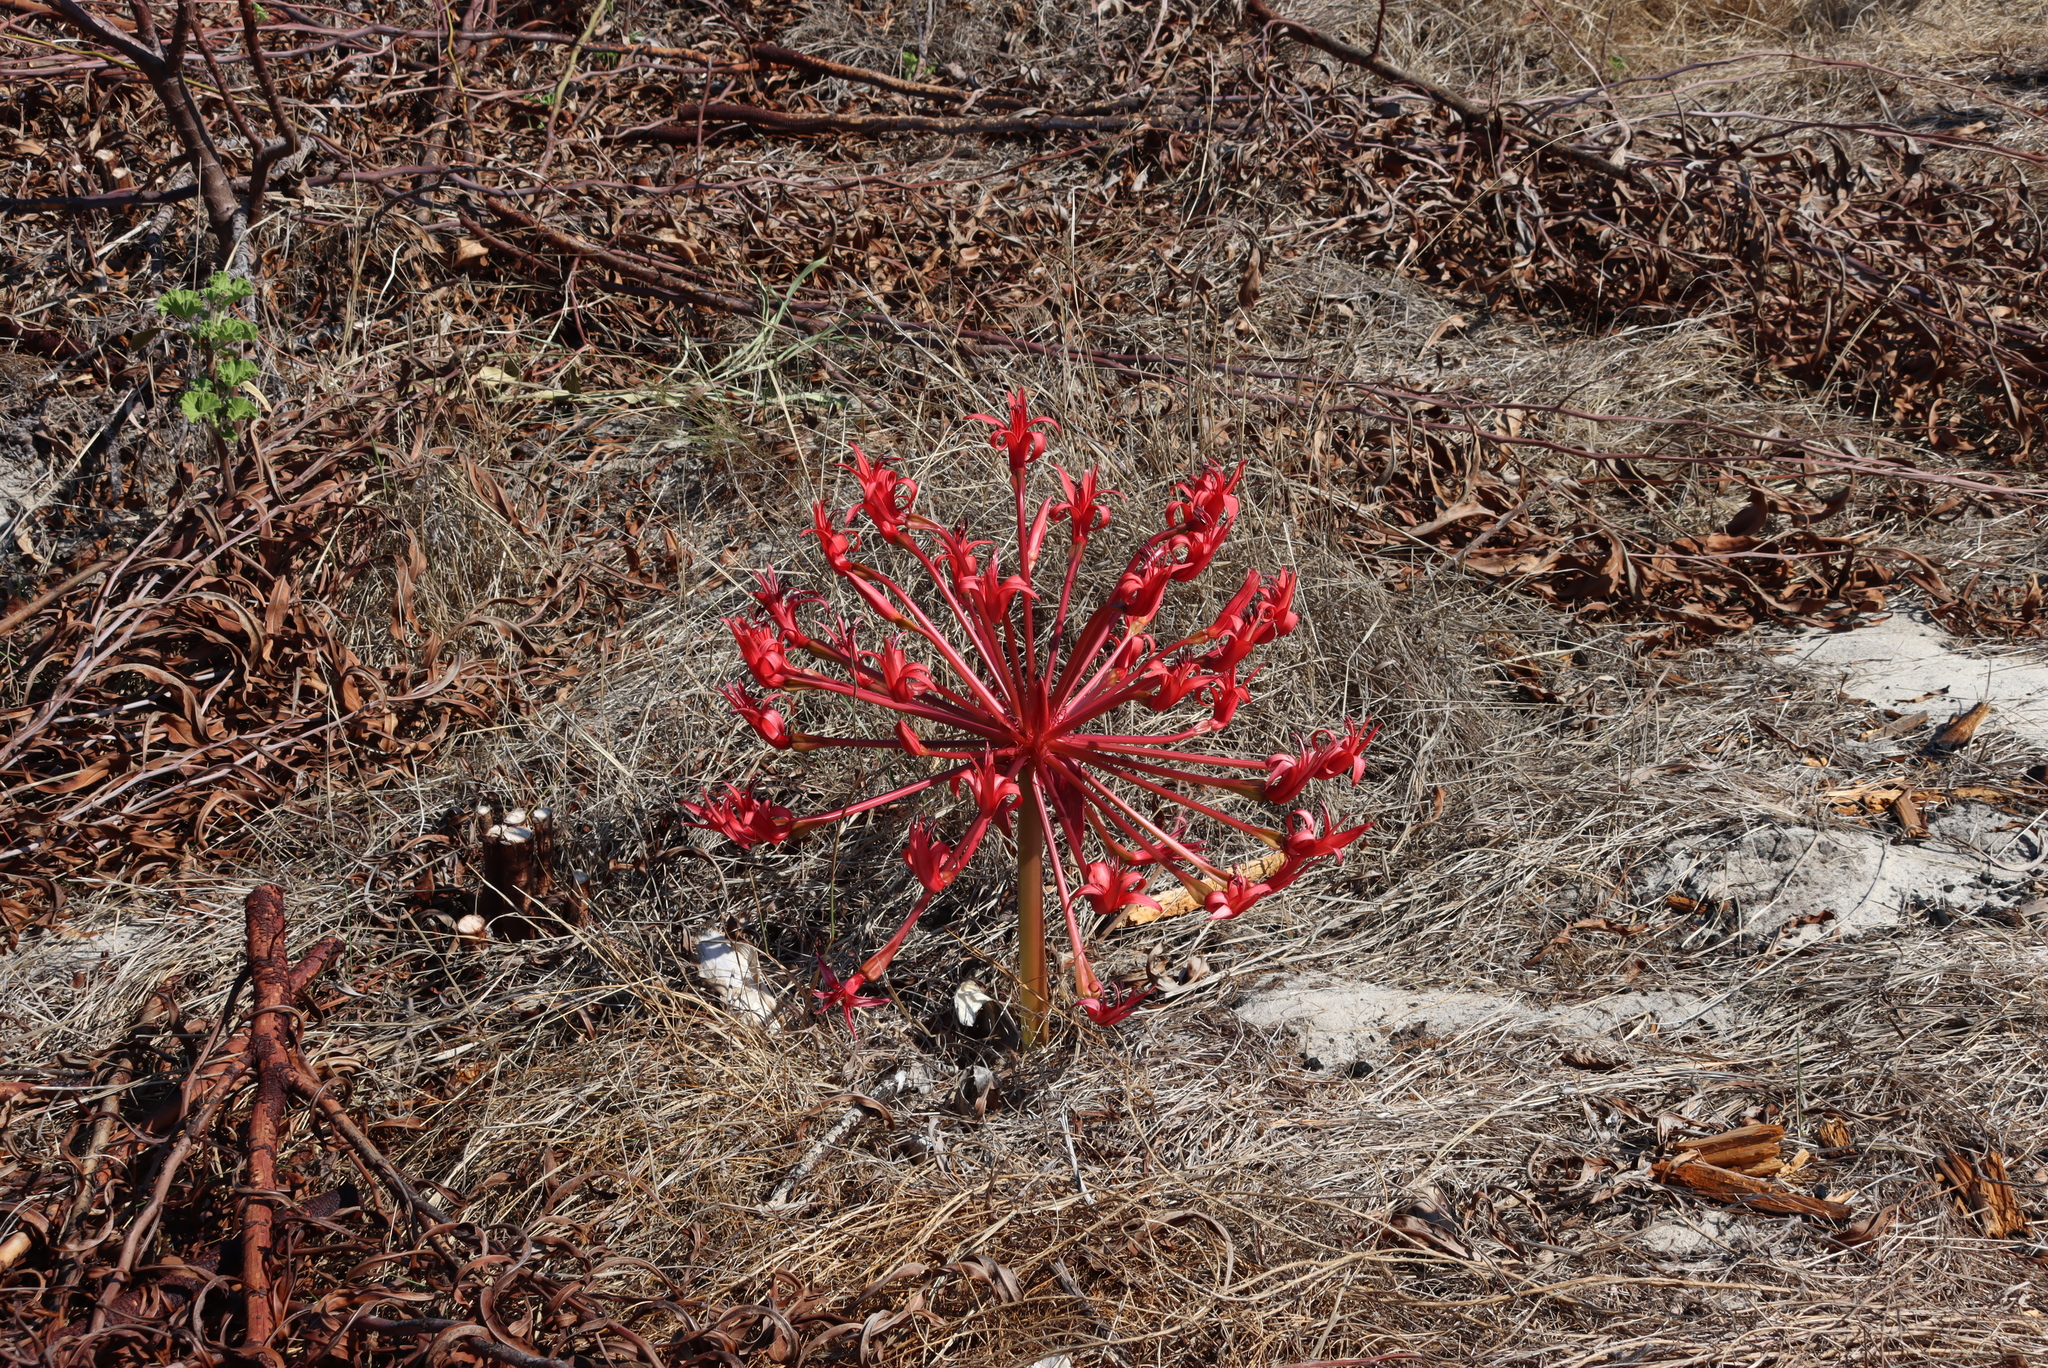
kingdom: Plantae
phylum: Tracheophyta
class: Liliopsida
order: Asparagales
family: Amaryllidaceae
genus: Brunsvigia
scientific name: Brunsvigia orientalis
